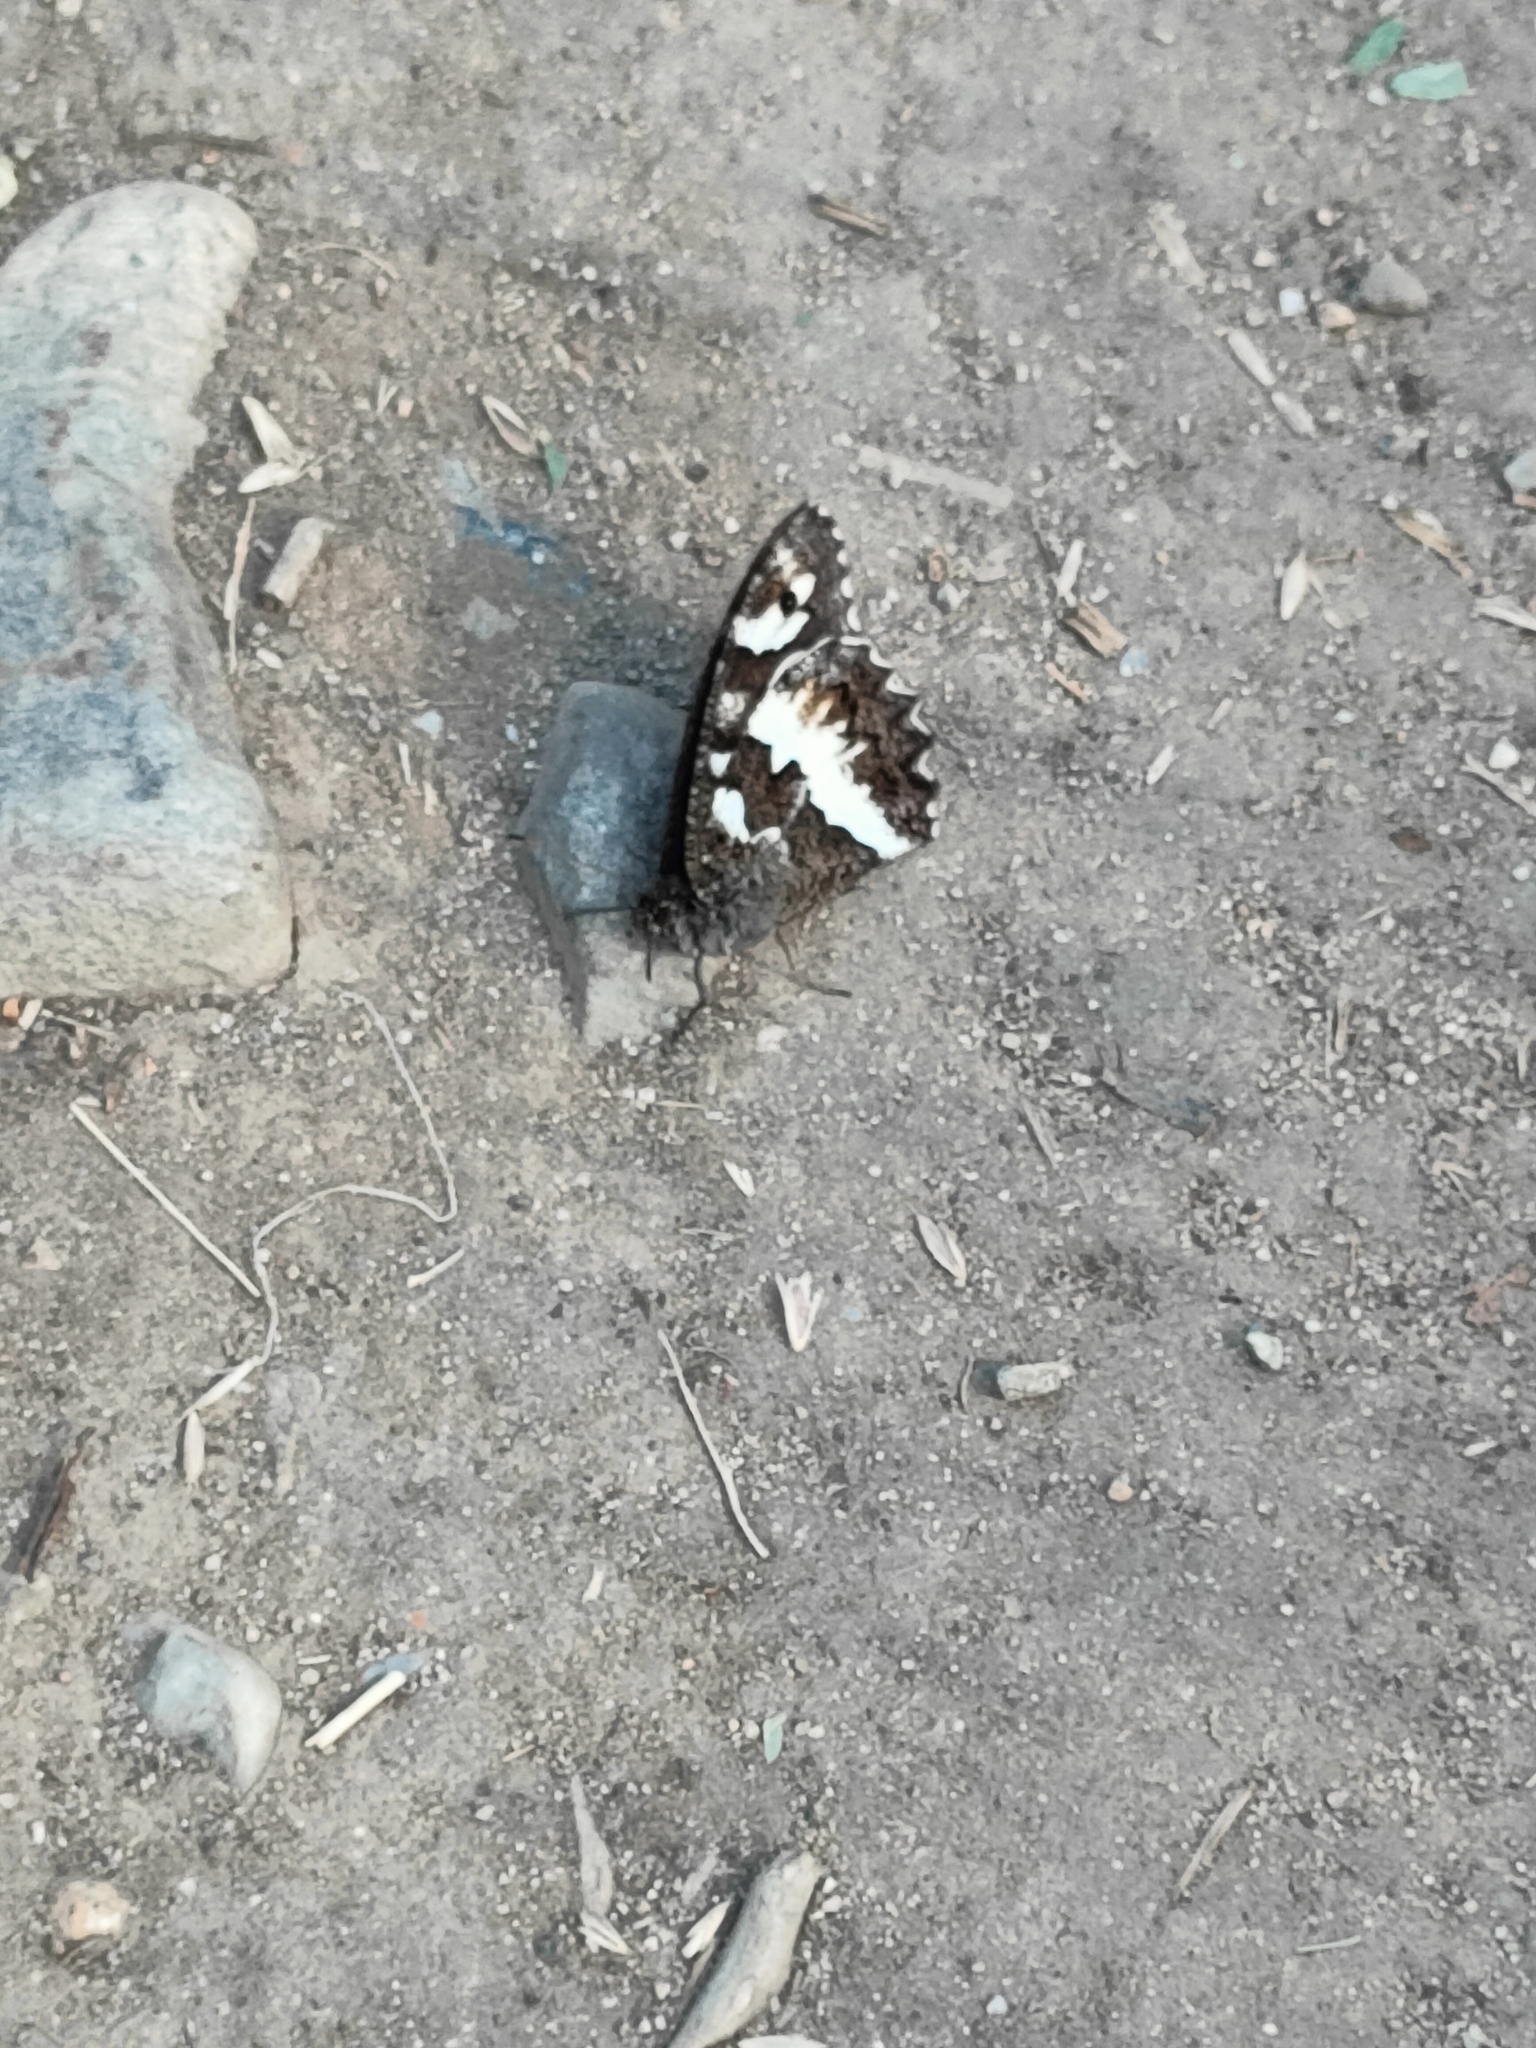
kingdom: Animalia
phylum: Arthropoda
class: Insecta
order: Lepidoptera
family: Lycaenidae
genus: Loweia
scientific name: Loweia tityrus
